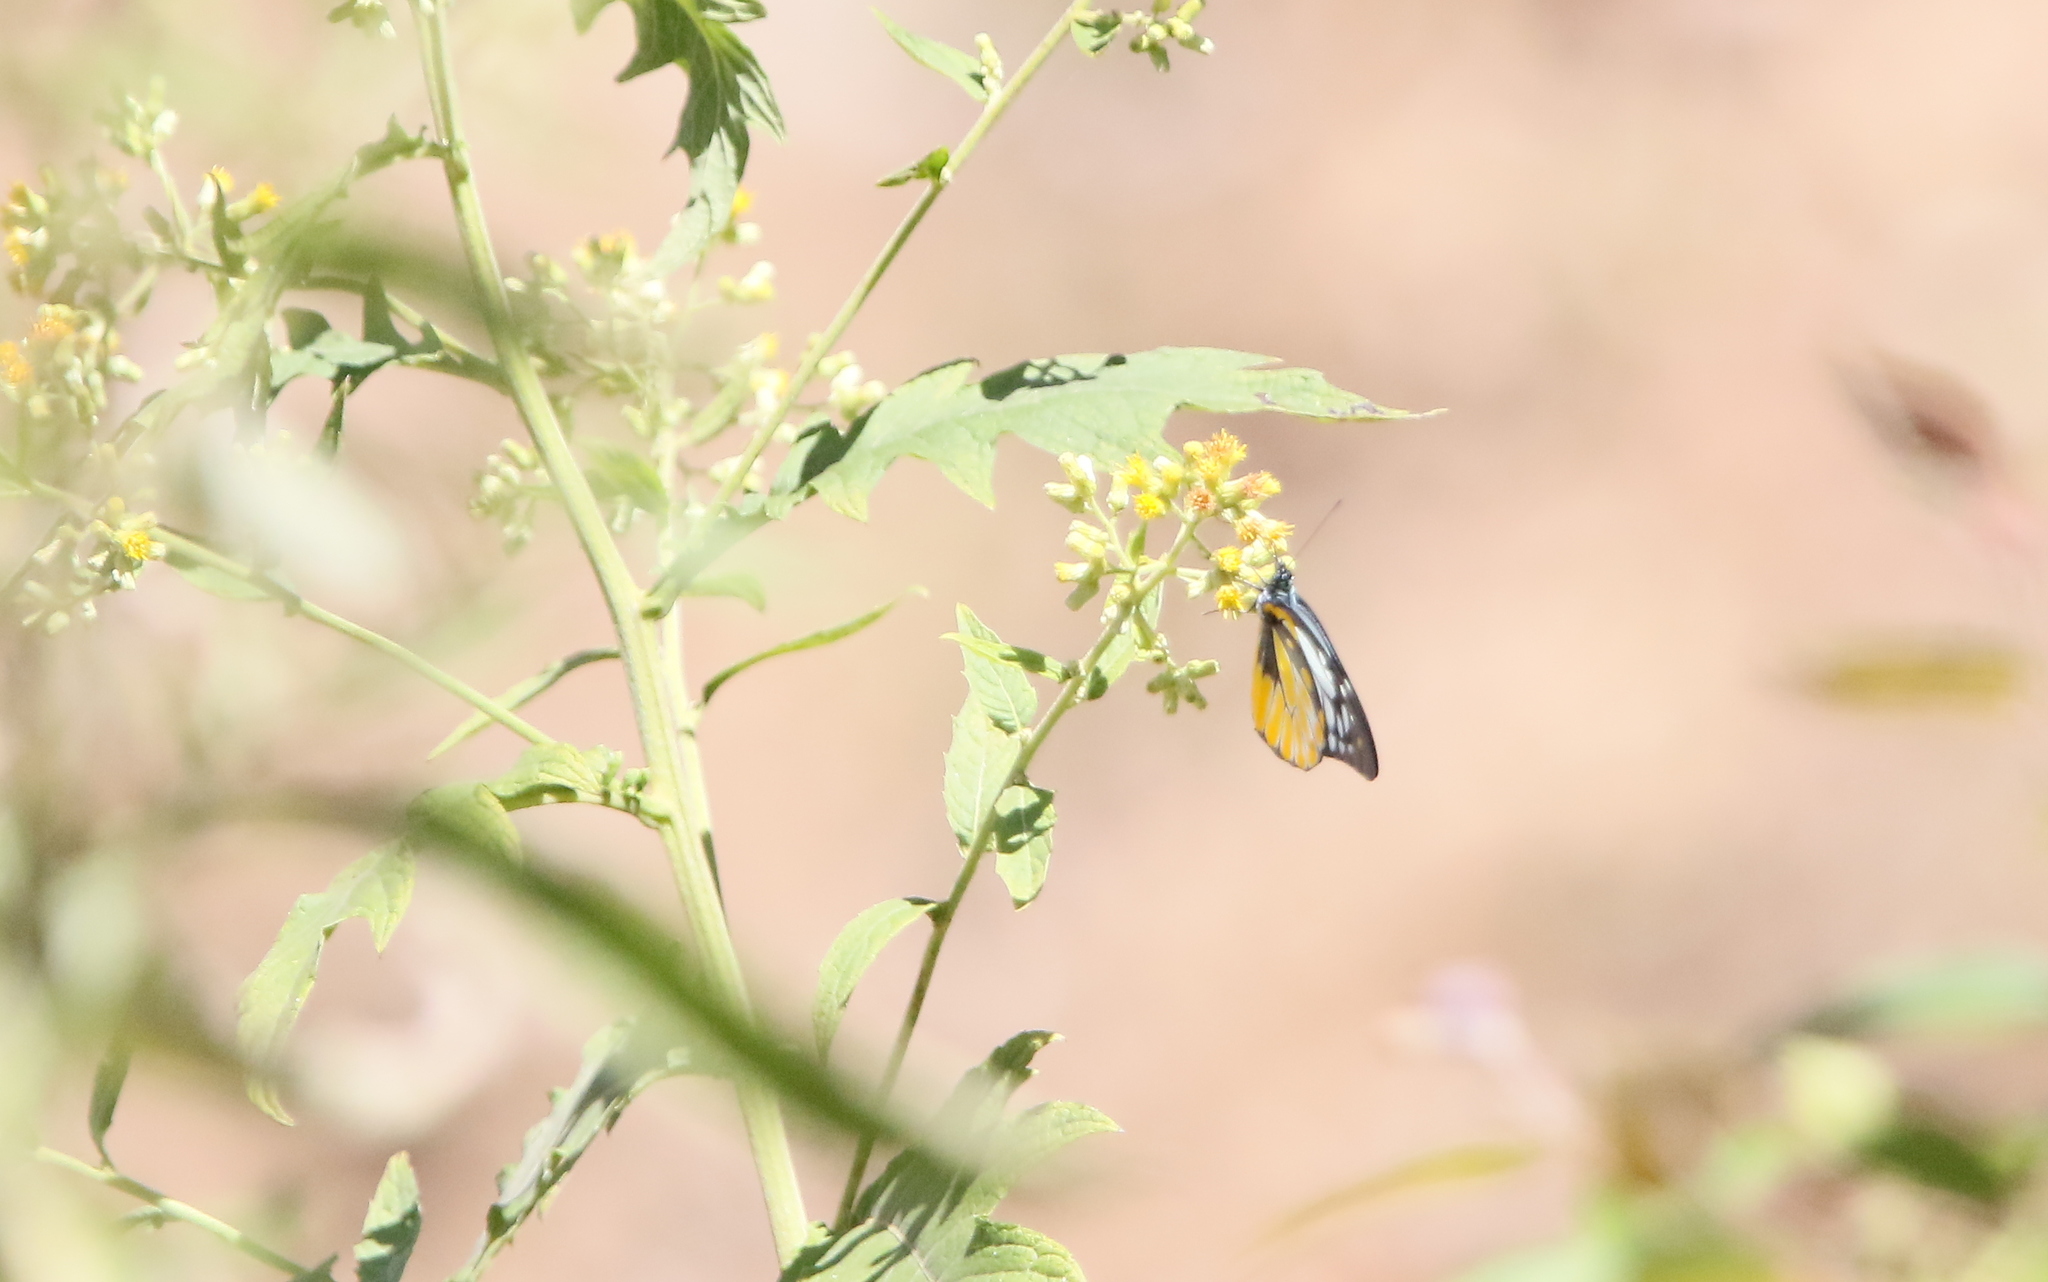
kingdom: Animalia
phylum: Arthropoda
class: Insecta
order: Lepidoptera
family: Pieridae
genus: Prioneris
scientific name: Prioneris thestylis
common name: Spotted sawtooth
